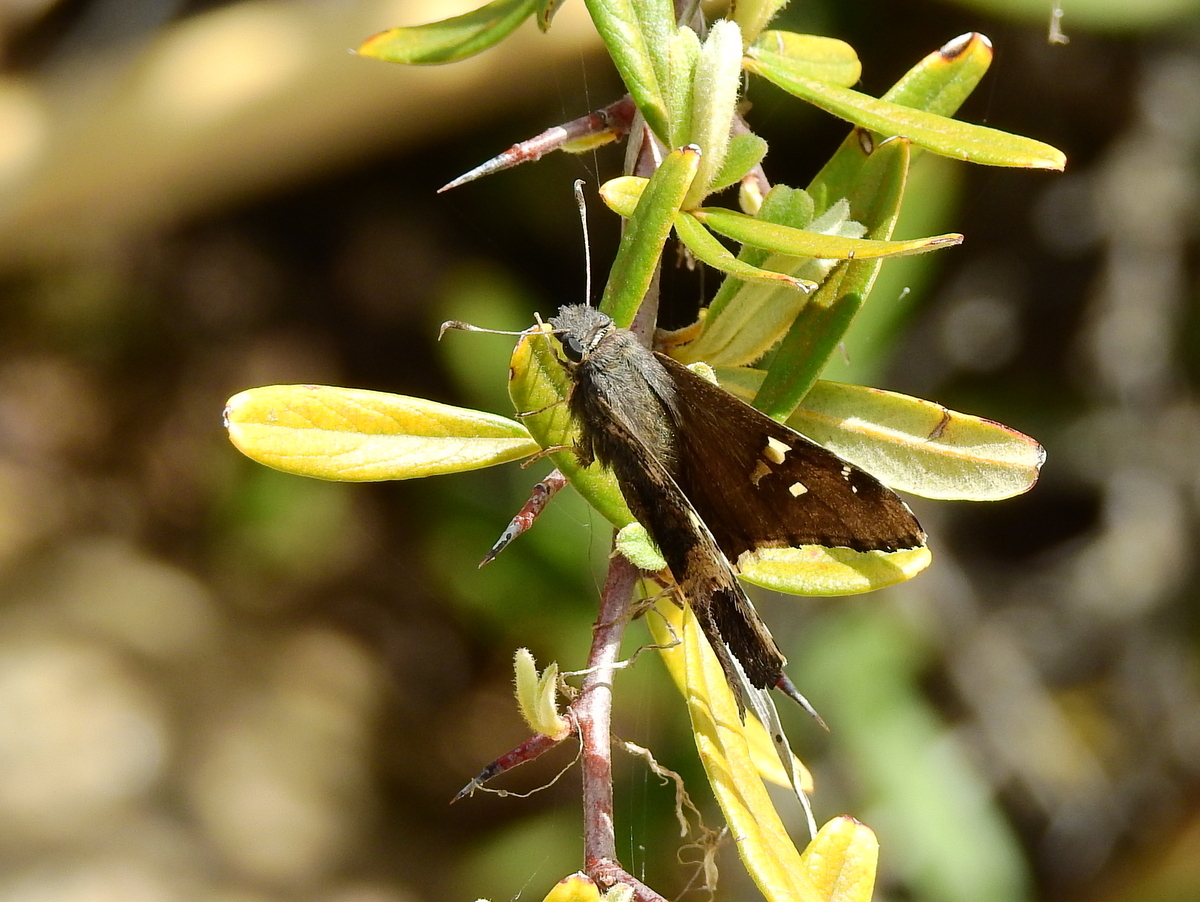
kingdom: Animalia
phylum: Arthropoda
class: Insecta
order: Lepidoptera
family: Hesperiidae
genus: Chioides
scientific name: Chioides catillus
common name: Silverbanded skipper
